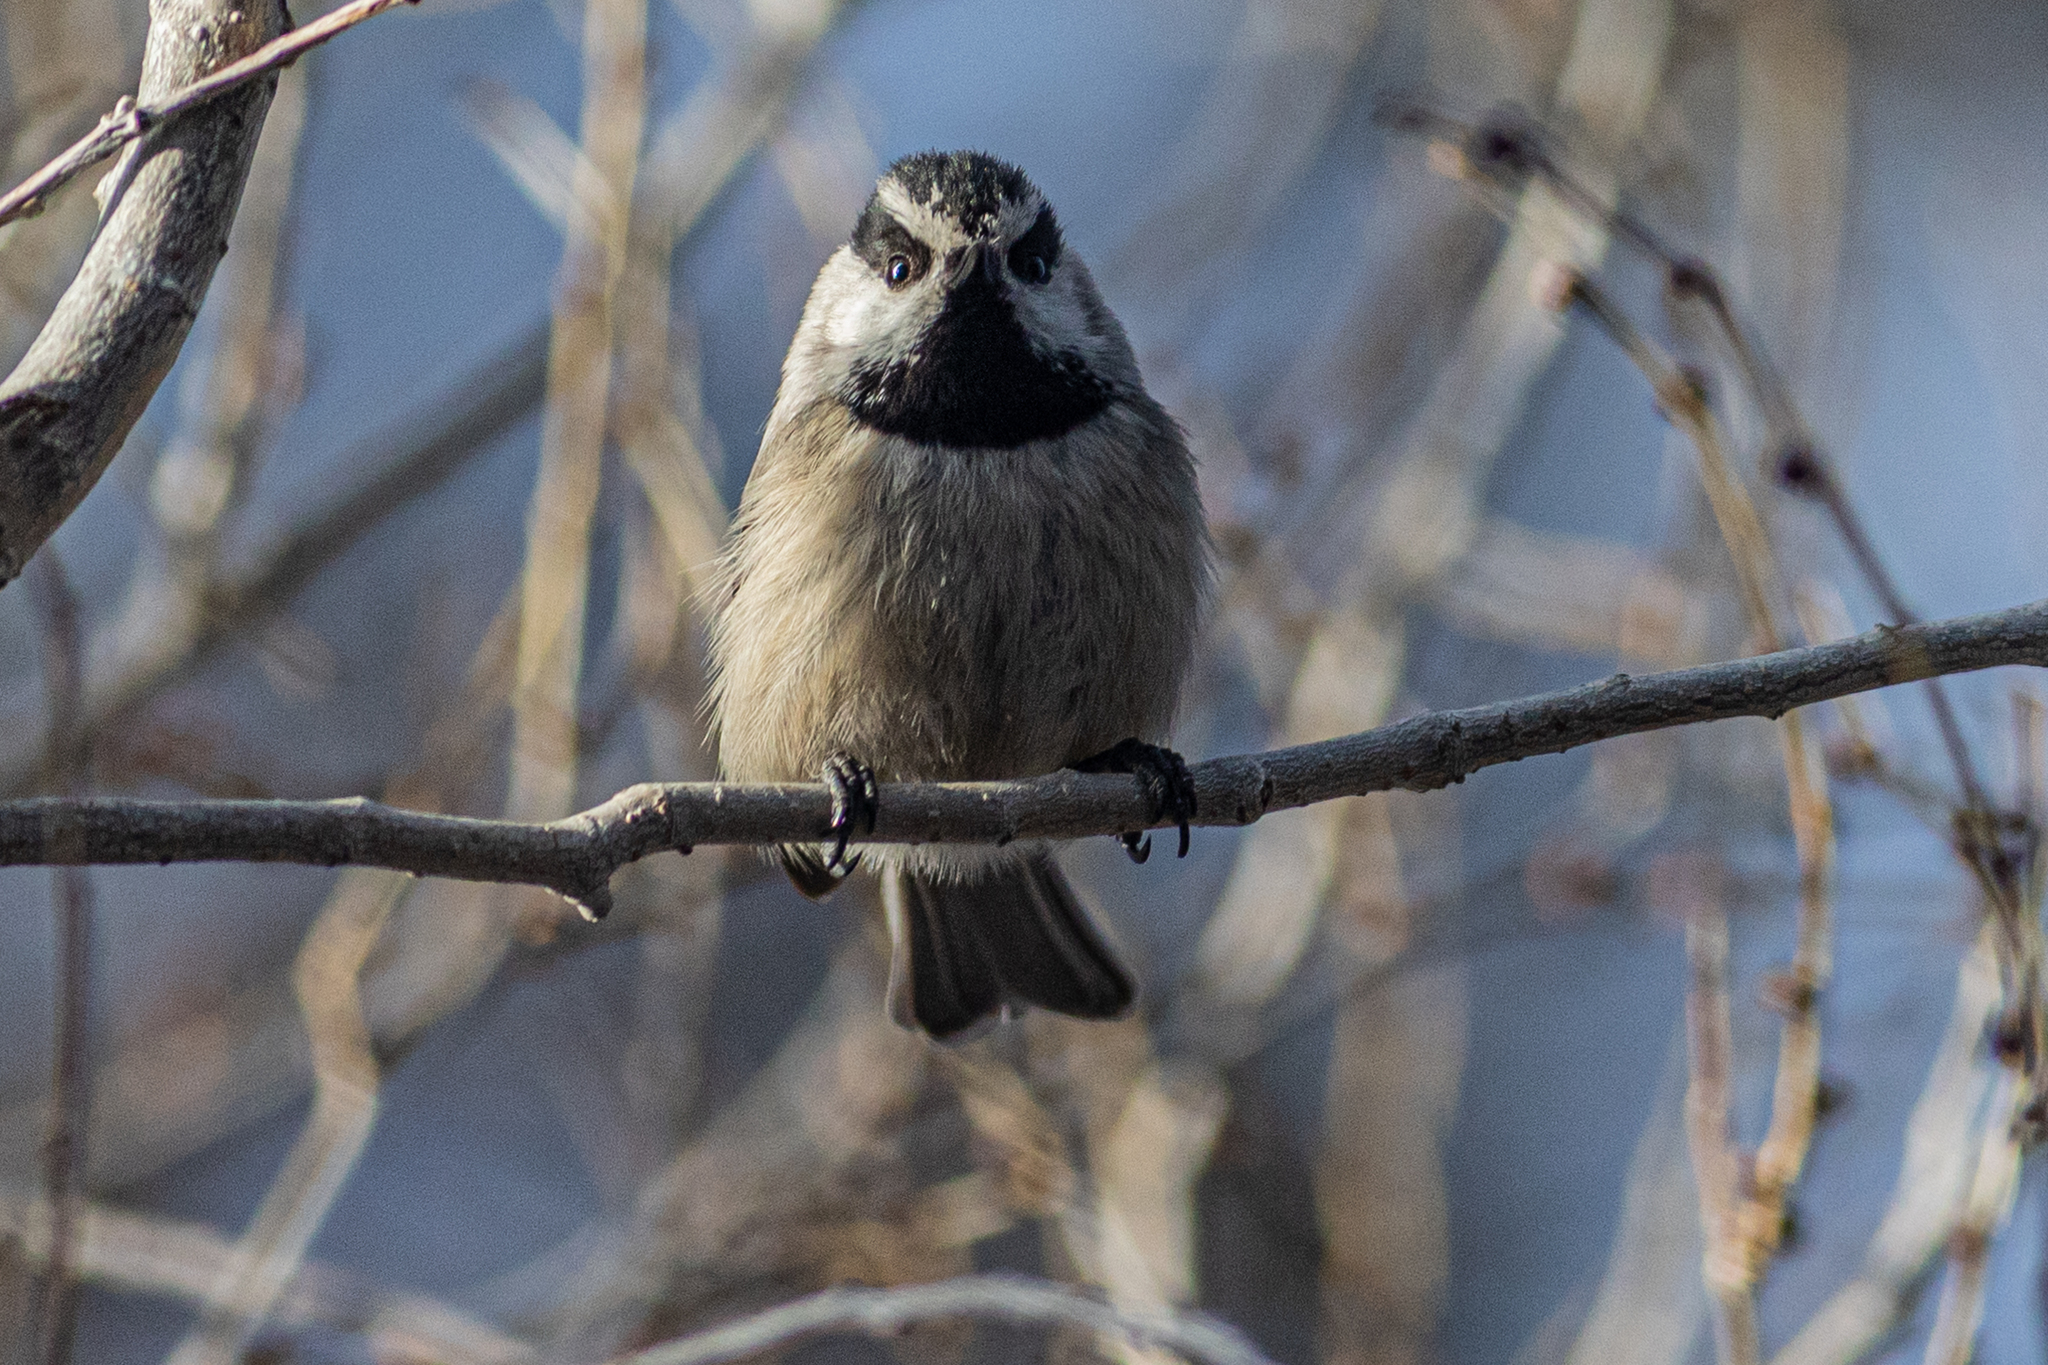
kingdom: Animalia
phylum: Chordata
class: Aves
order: Passeriformes
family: Paridae
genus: Poecile
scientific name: Poecile gambeli
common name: Mountain chickadee
